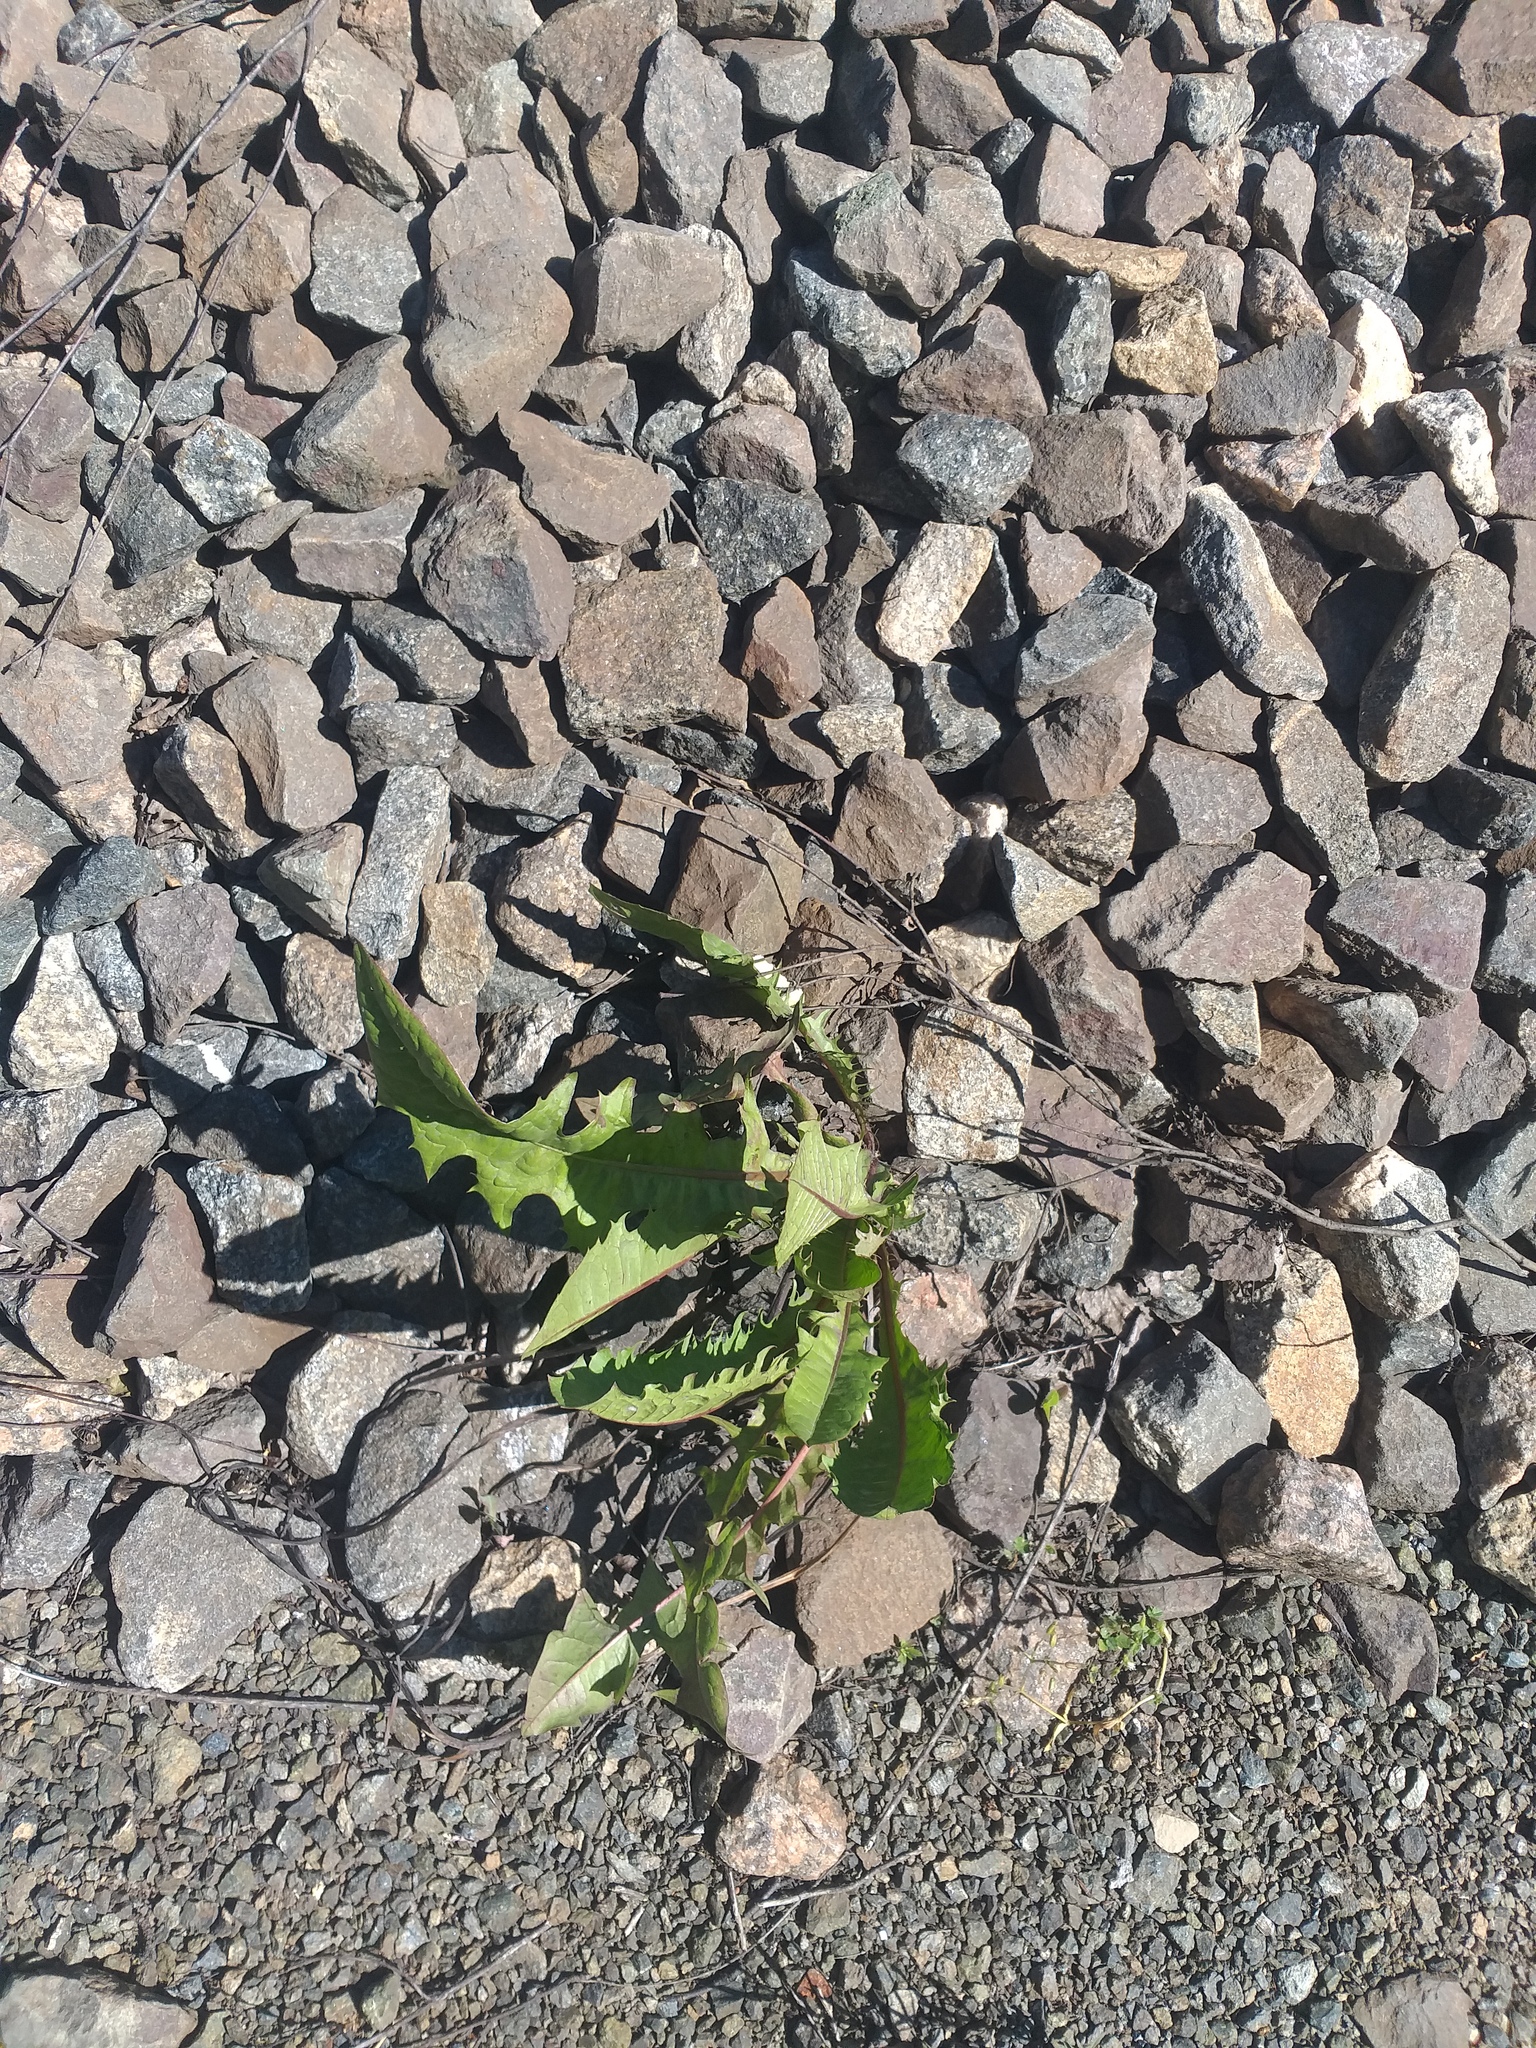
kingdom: Plantae
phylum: Tracheophyta
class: Magnoliopsida
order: Asterales
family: Asteraceae
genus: Taraxacum
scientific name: Taraxacum officinale
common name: Common dandelion
